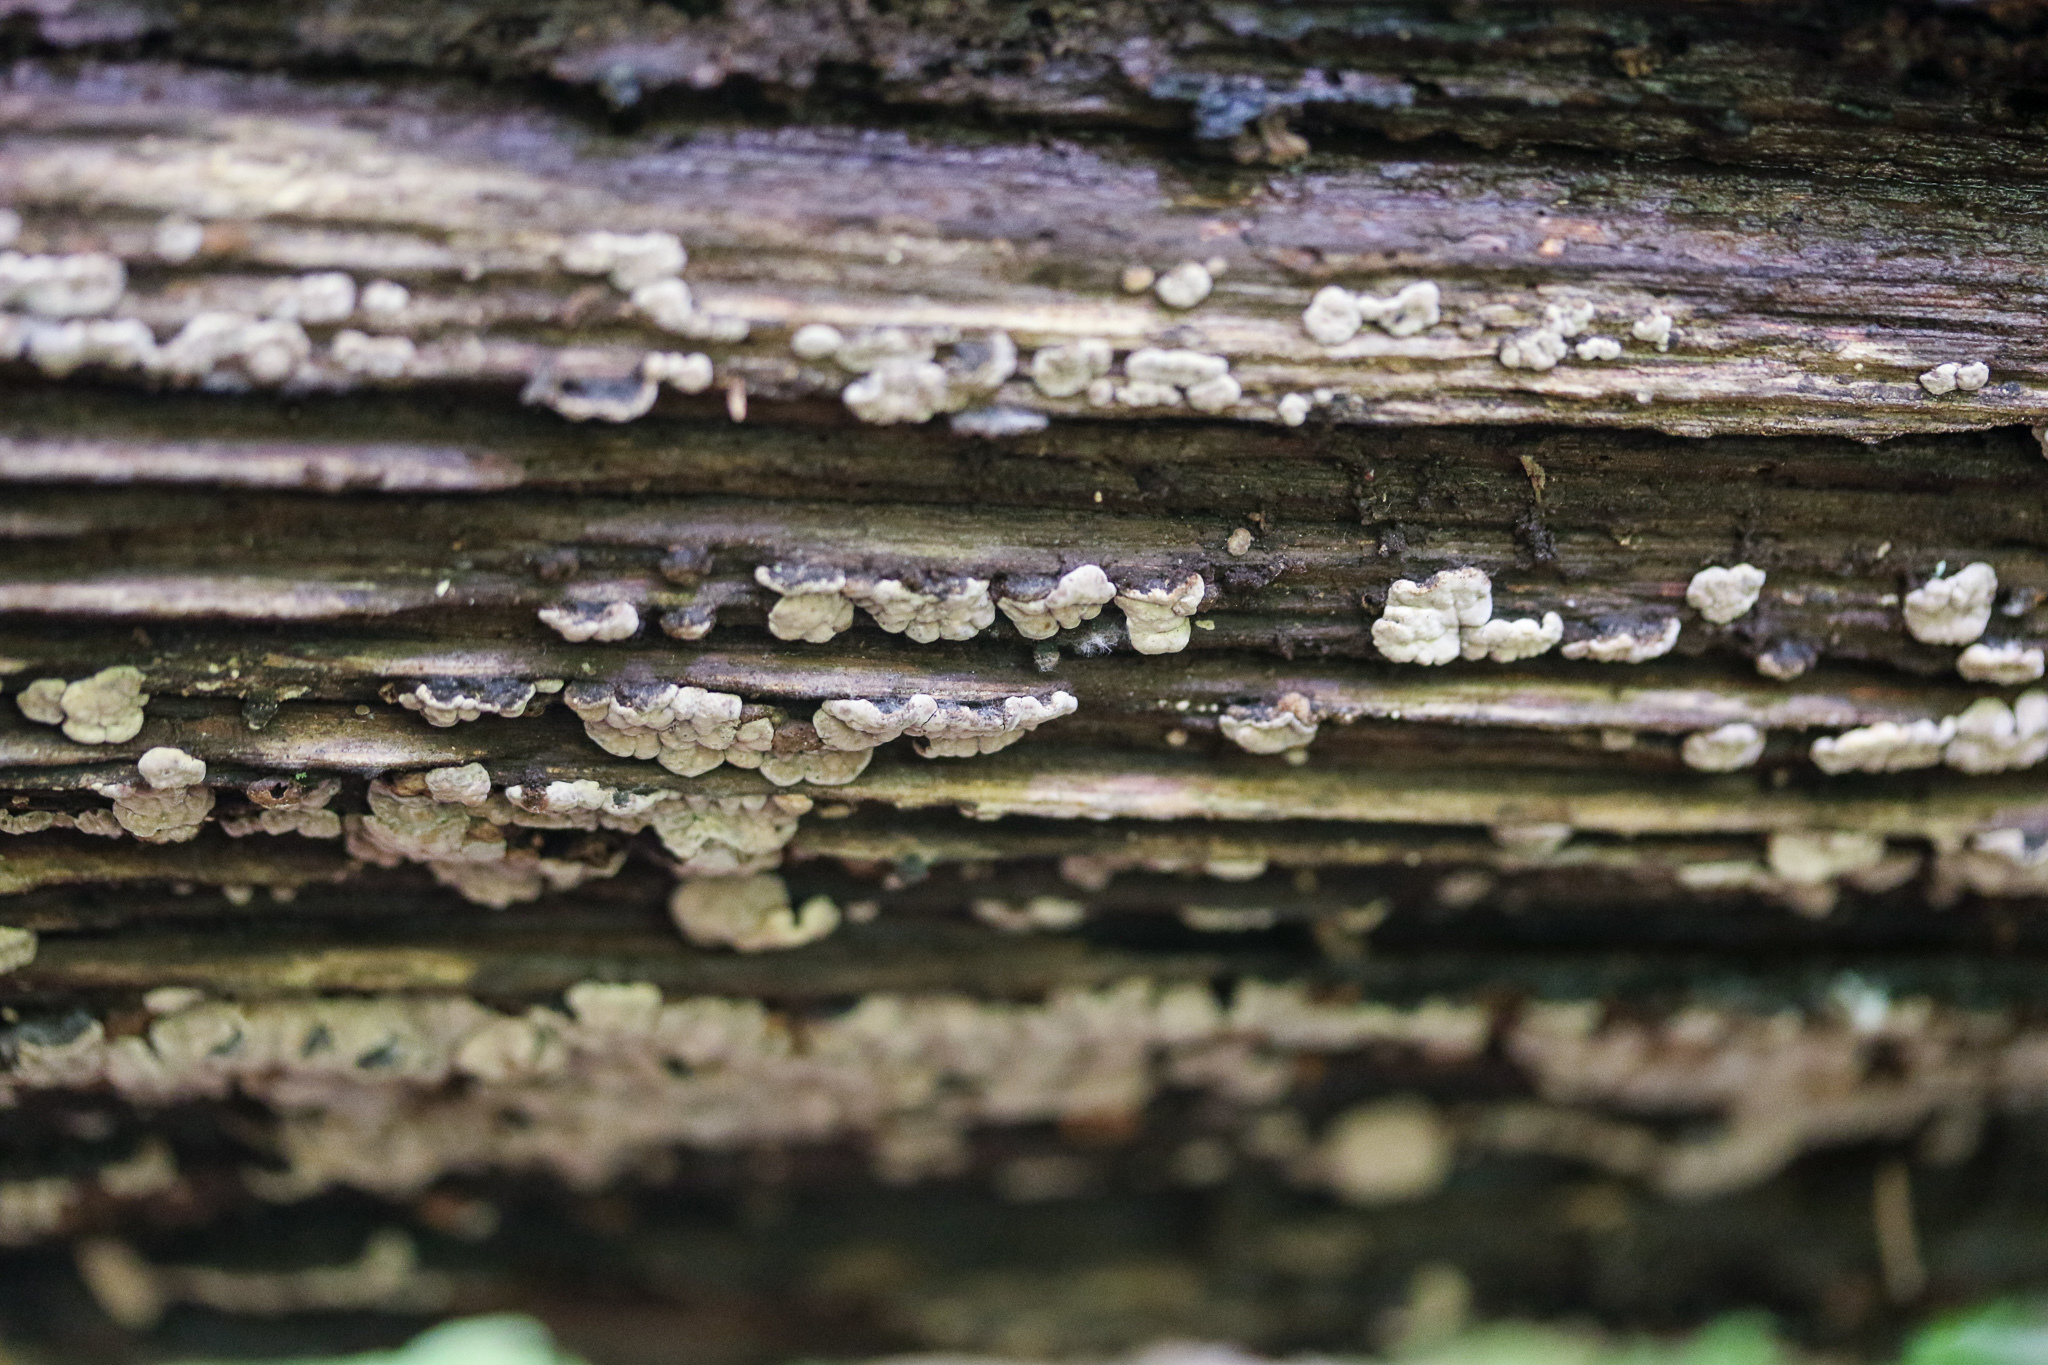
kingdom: Fungi
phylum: Basidiomycota
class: Agaricomycetes
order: Russulales
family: Stereaceae
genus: Xylobolus
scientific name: Xylobolus frustulatus
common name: Ceramic parchment
